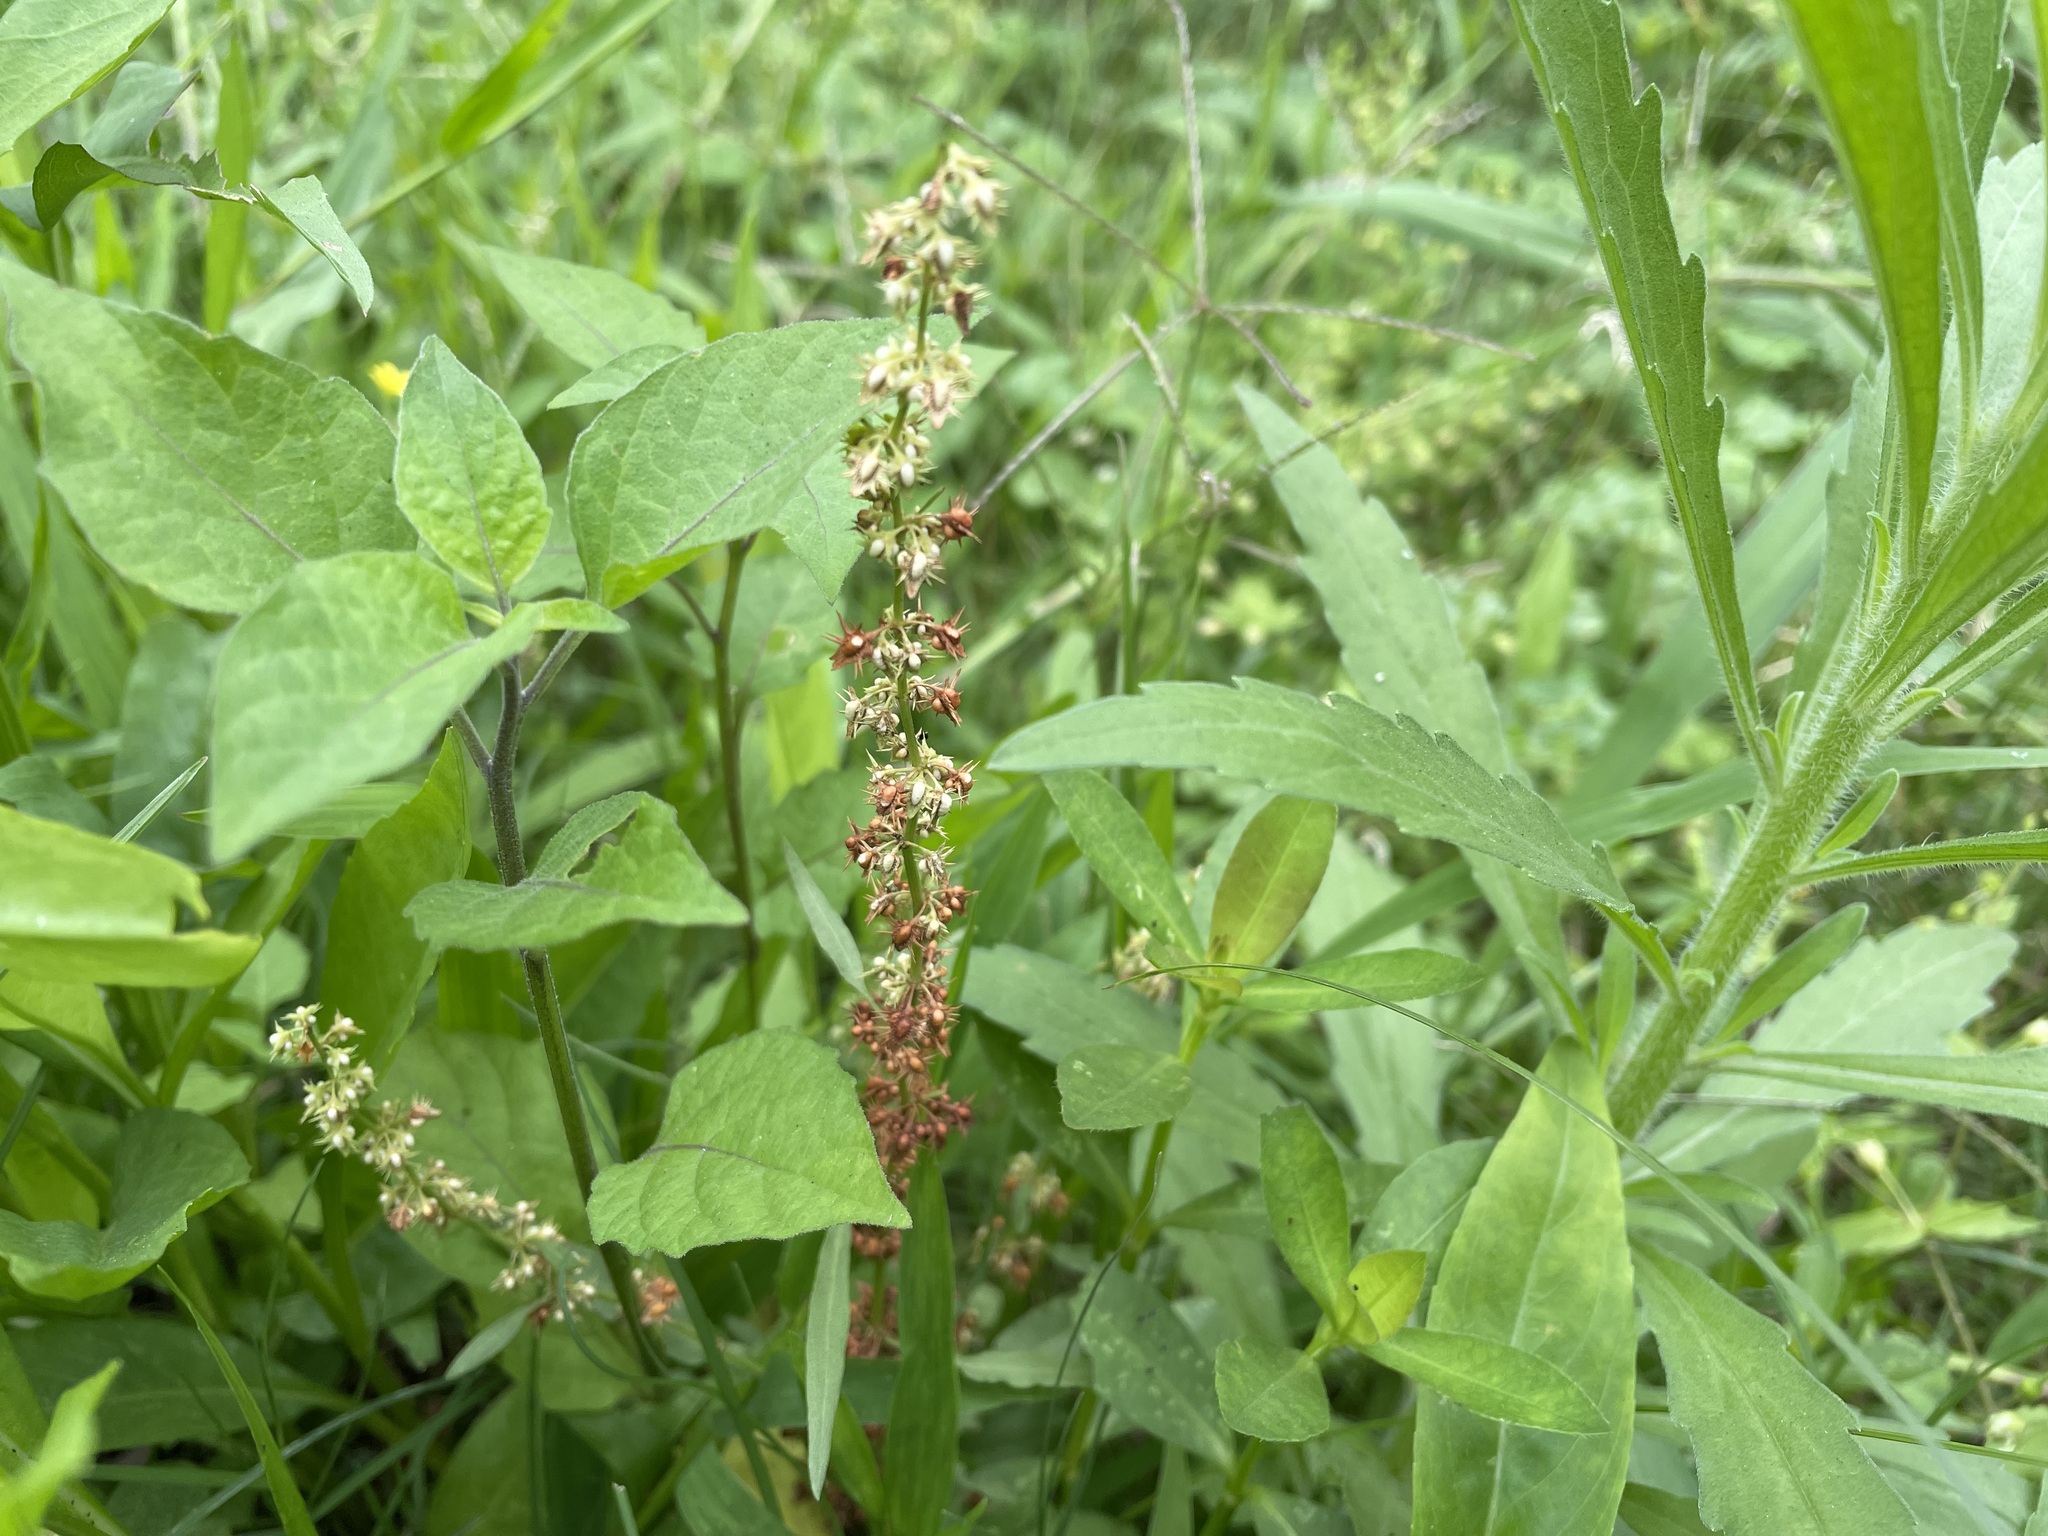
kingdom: Plantae
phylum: Tracheophyta
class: Magnoliopsida
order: Caryophyllales
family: Polygonaceae
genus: Rumex
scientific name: Rumex dentatus
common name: Toothed dock
